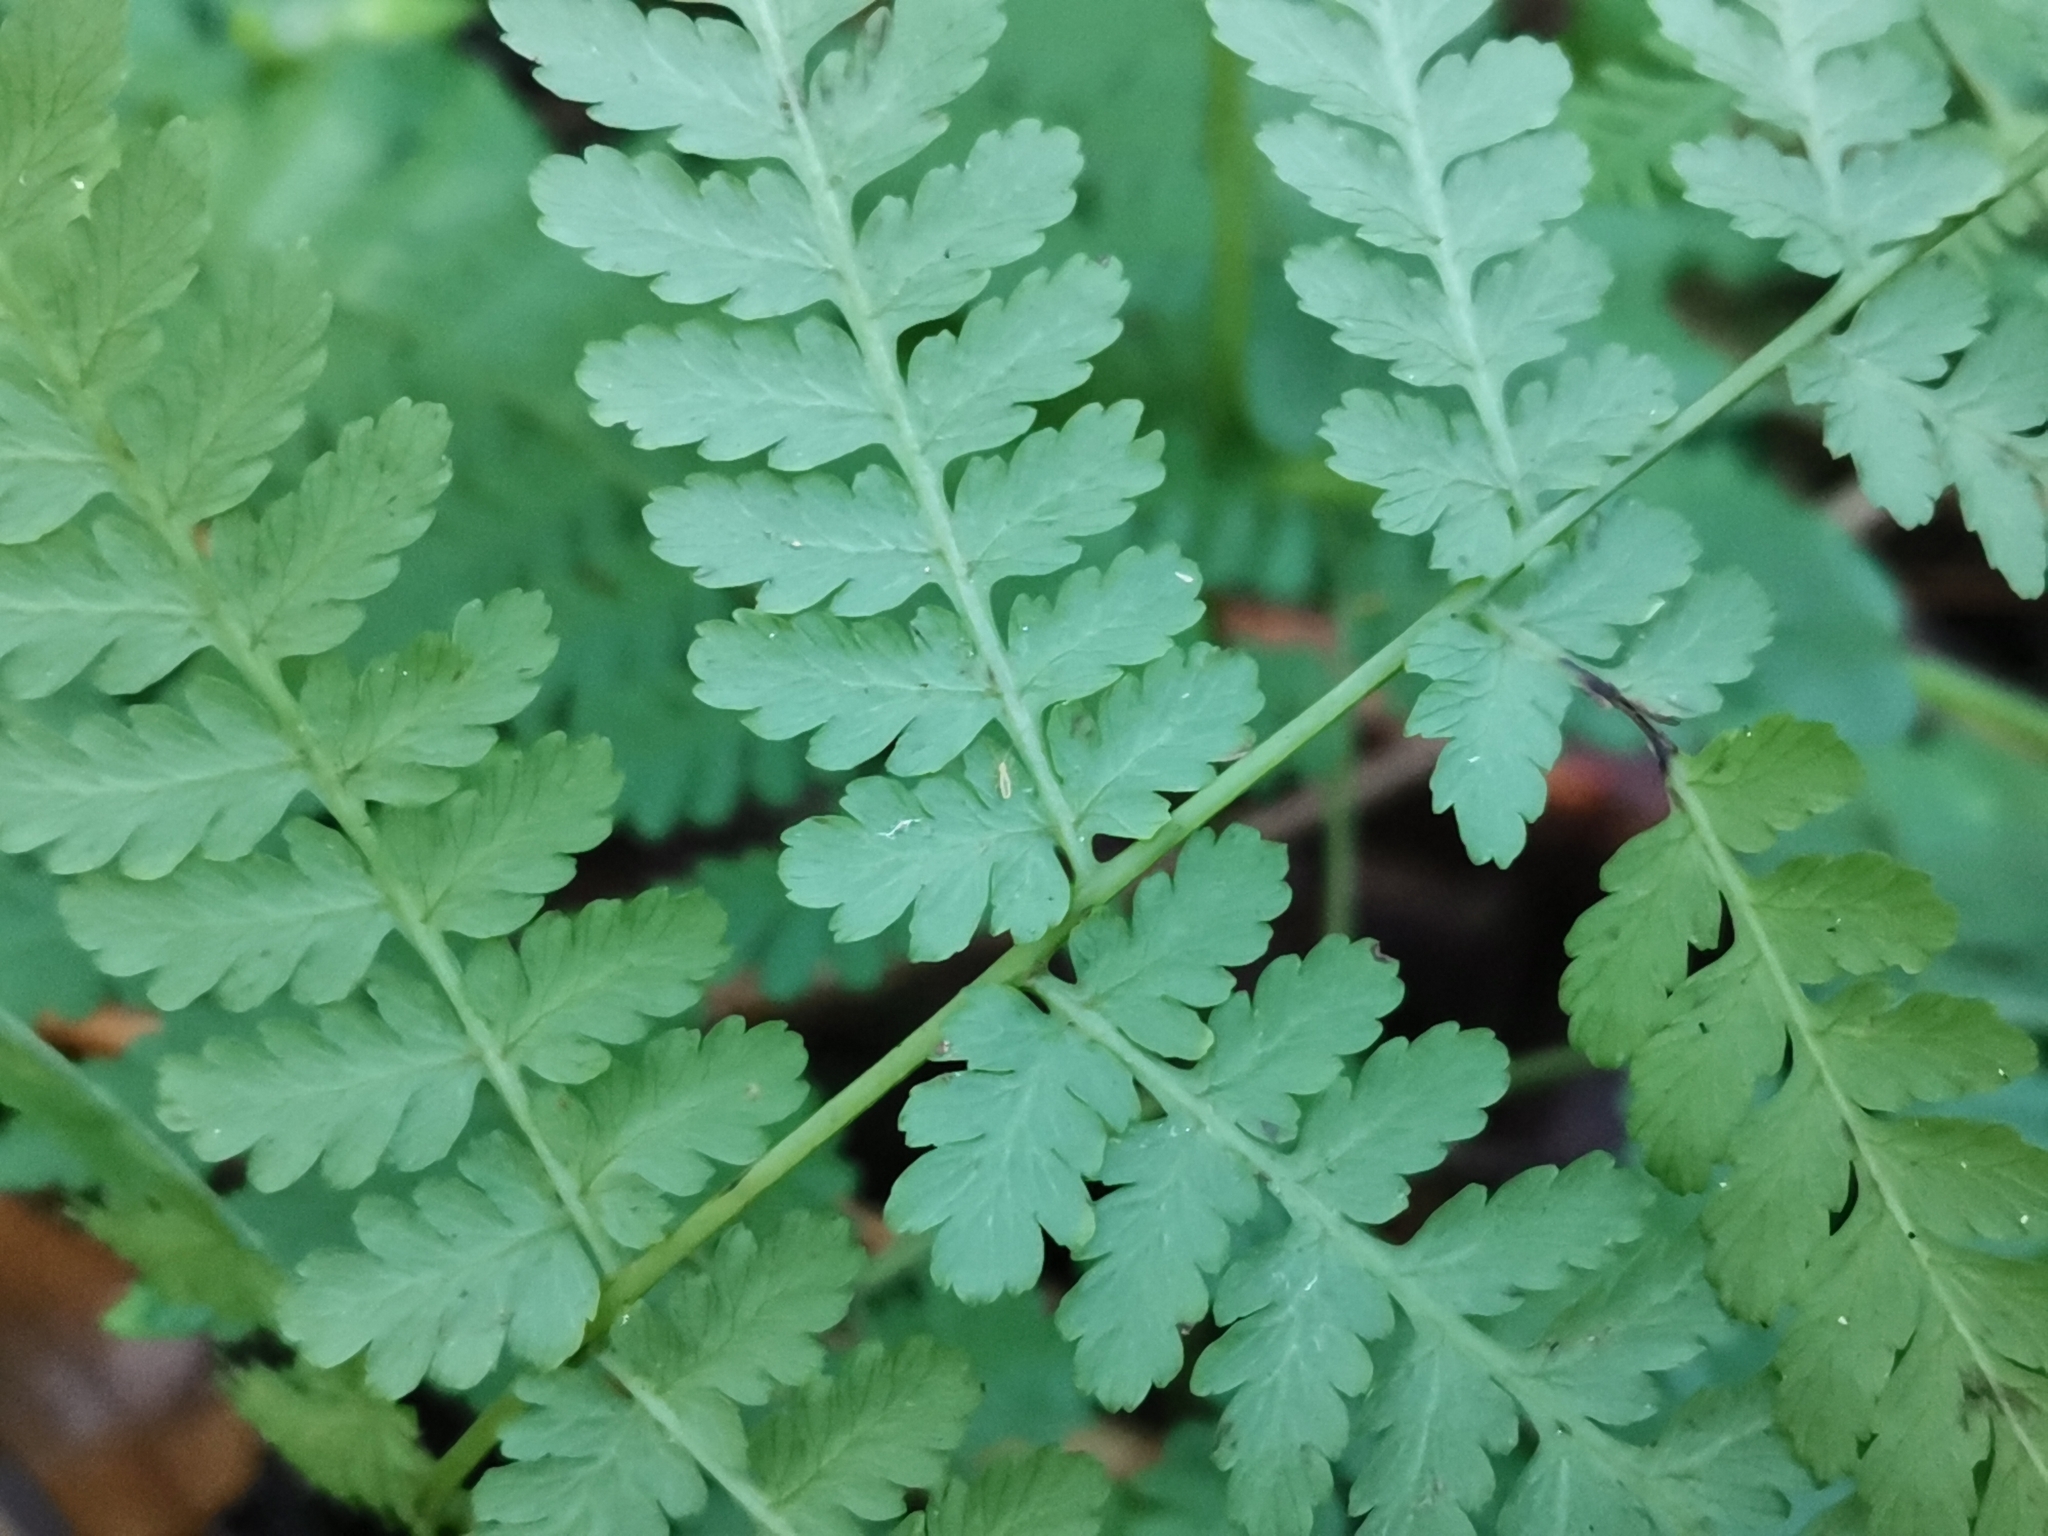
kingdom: Plantae
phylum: Tracheophyta
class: Polypodiopsida
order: Polypodiales
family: Athyriaceae
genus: Diplazium
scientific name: Diplazium chinense
